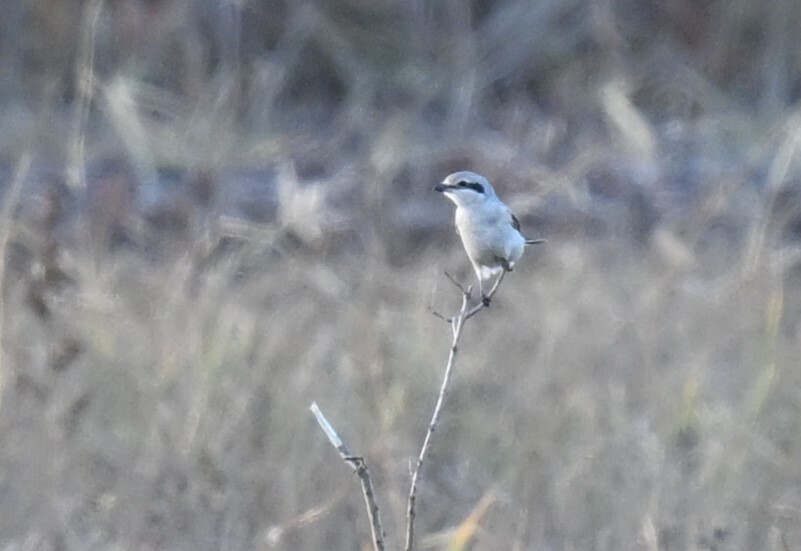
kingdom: Animalia
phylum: Chordata
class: Aves
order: Passeriformes
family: Laniidae
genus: Lanius
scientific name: Lanius borealis
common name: Northern shrike
